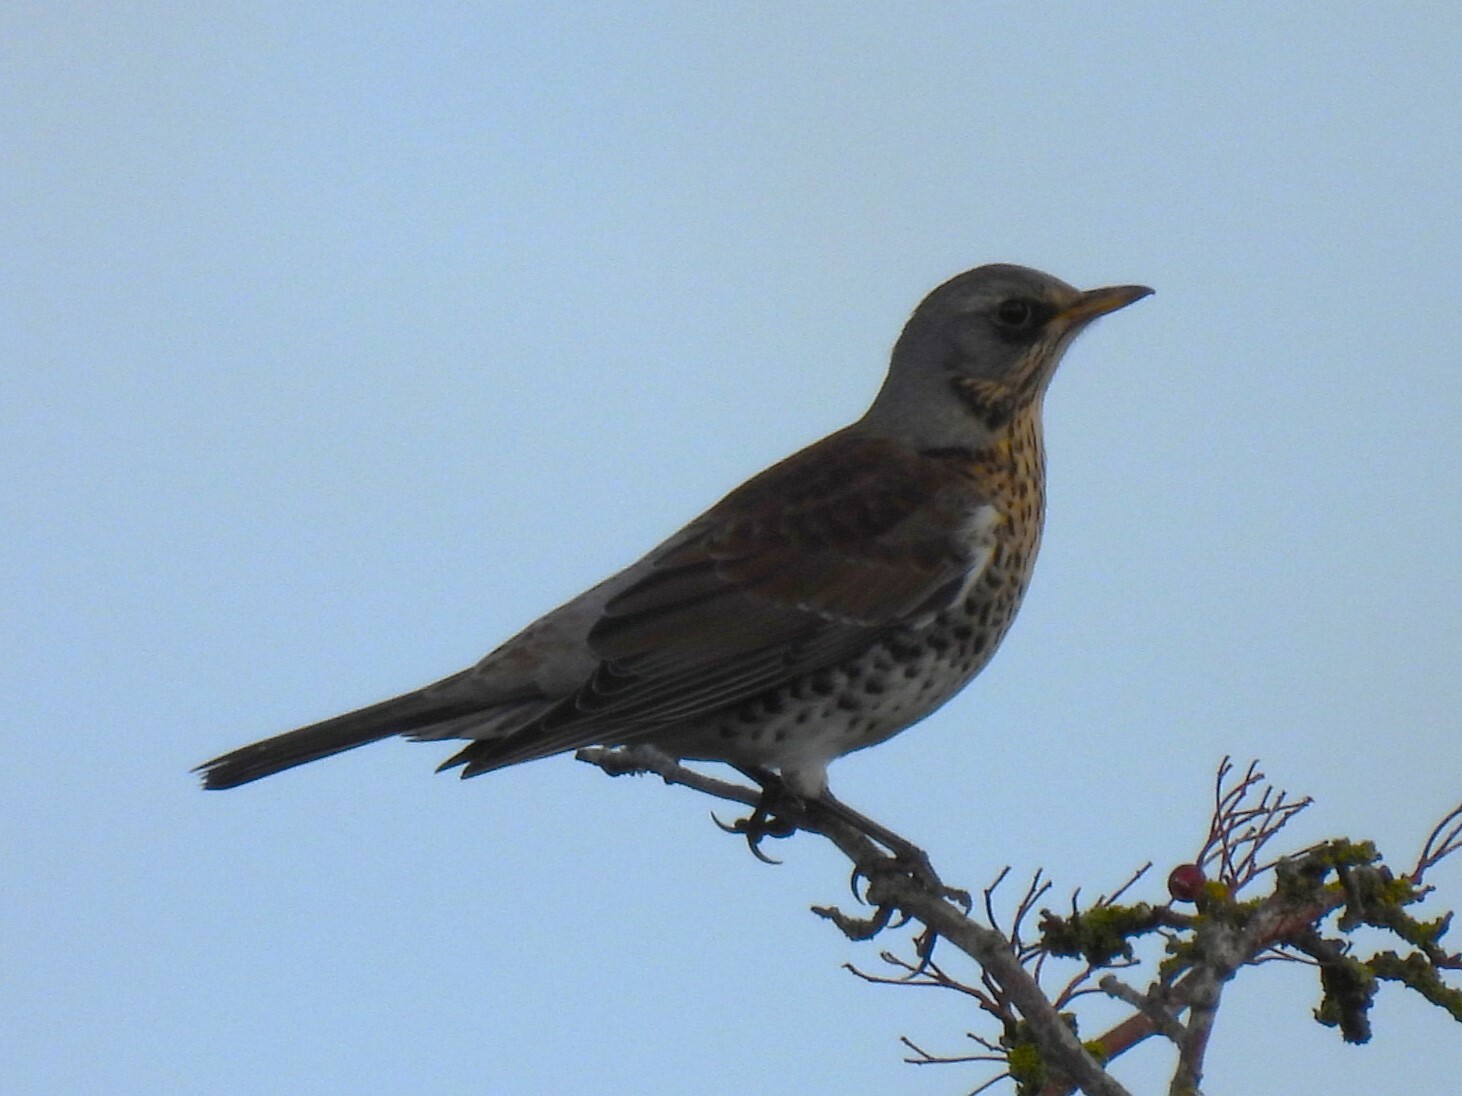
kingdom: Animalia
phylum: Chordata
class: Aves
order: Passeriformes
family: Turdidae
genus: Turdus
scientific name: Turdus pilaris
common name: Fieldfare
